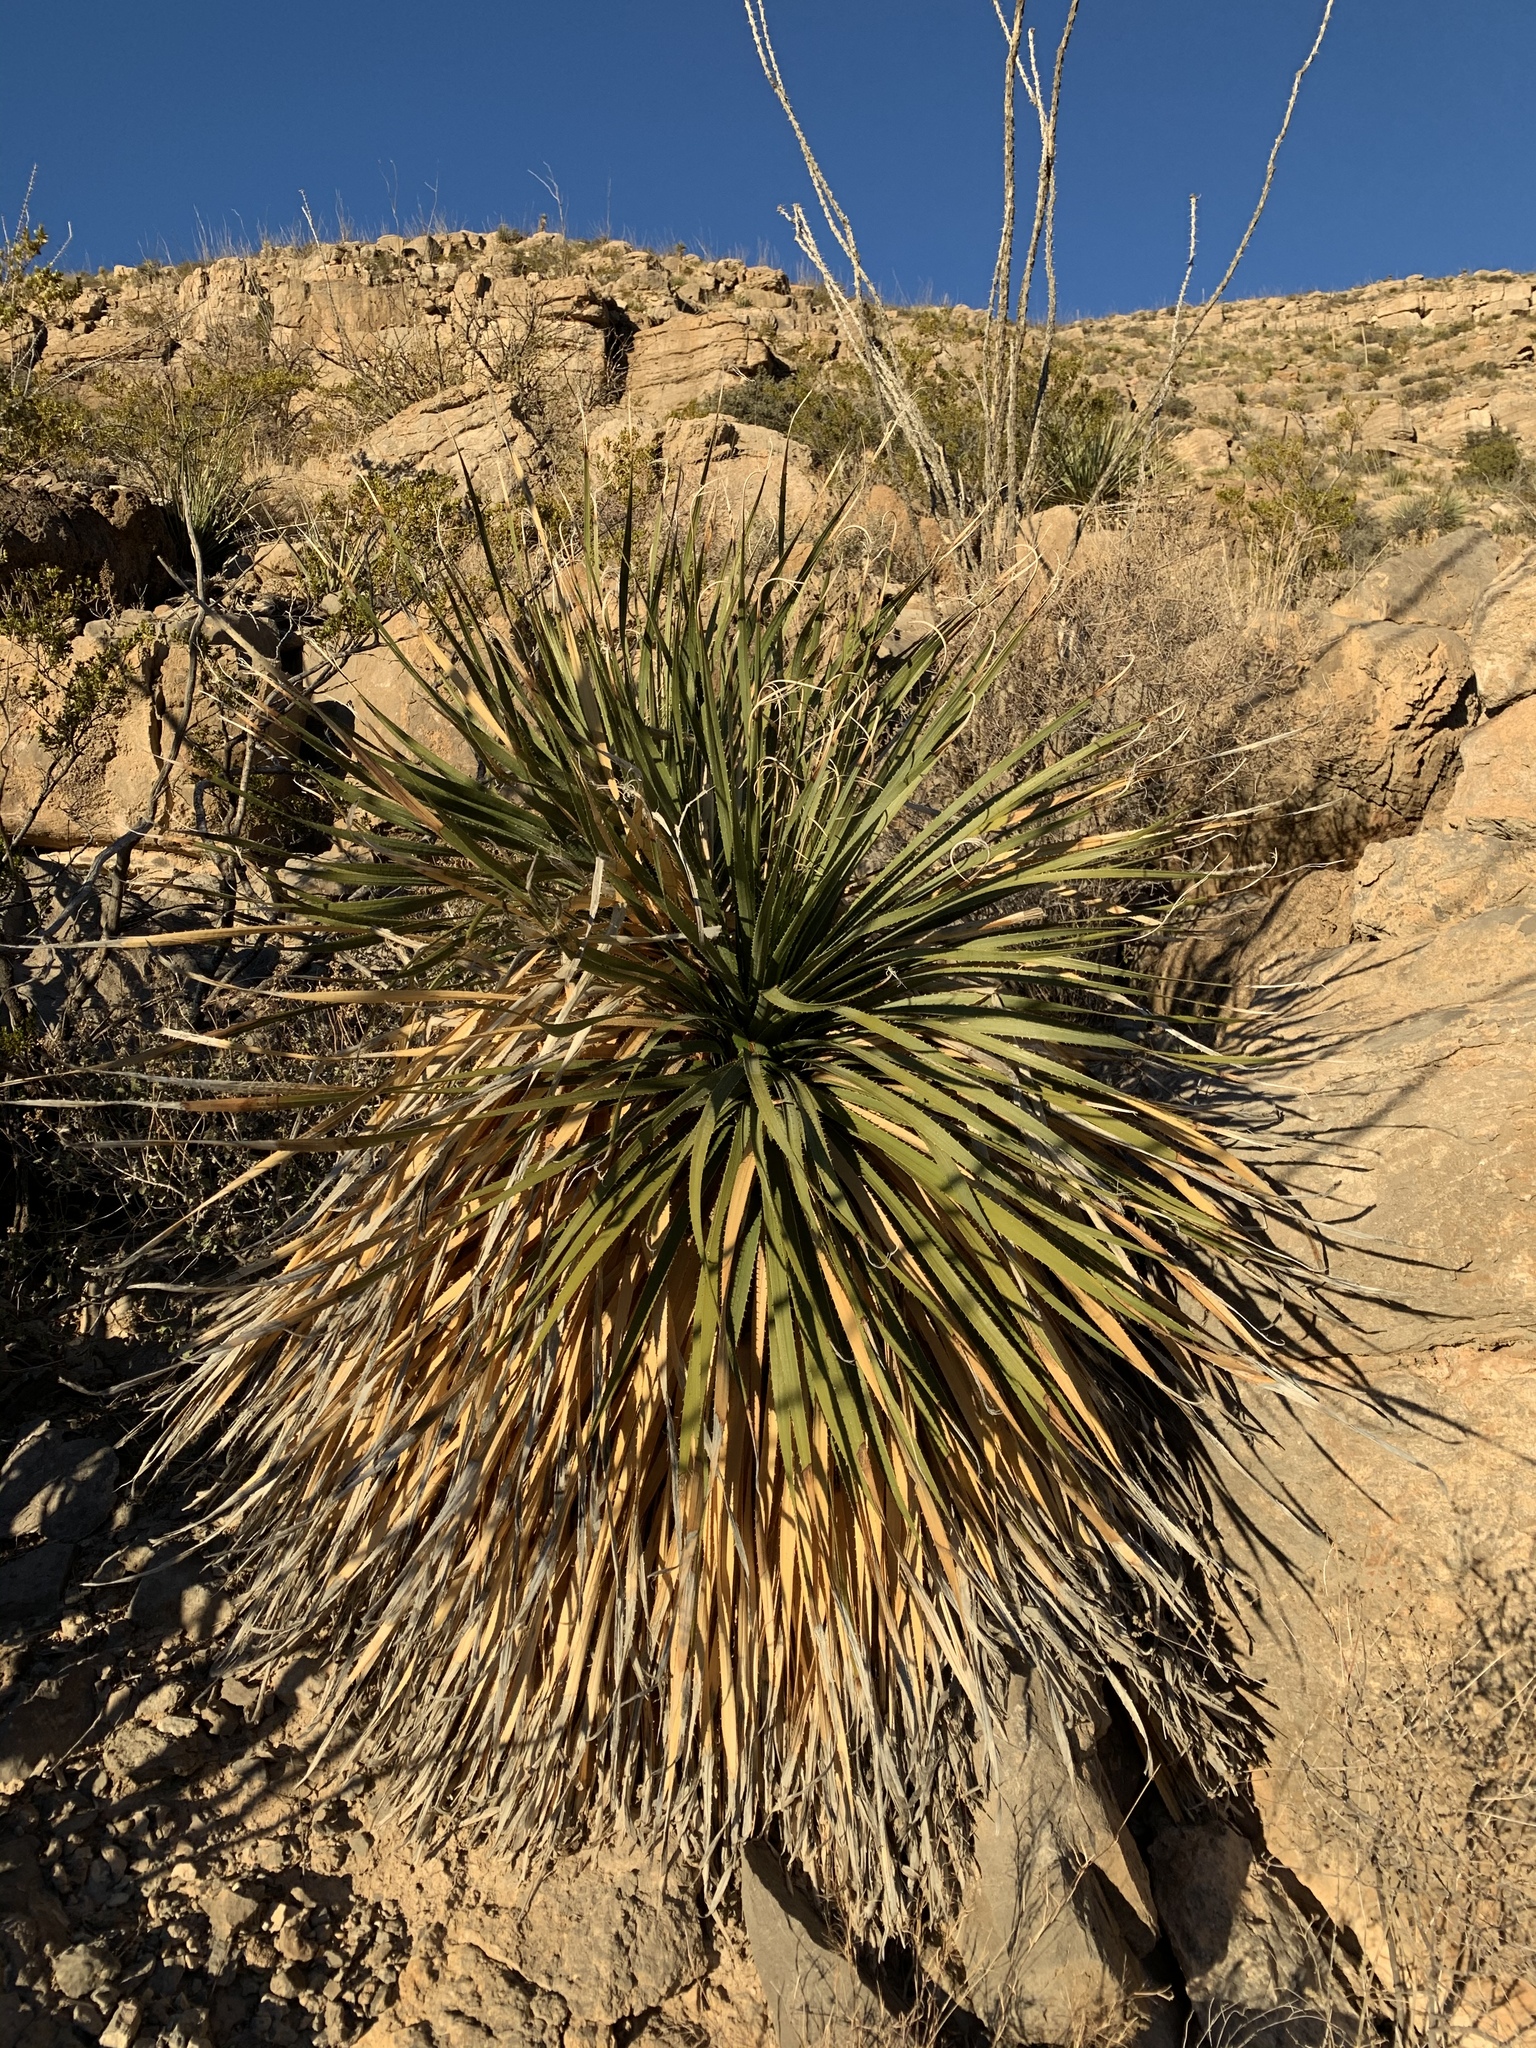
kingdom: Plantae
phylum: Tracheophyta
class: Liliopsida
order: Asparagales
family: Asparagaceae
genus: Dasylirion
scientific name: Dasylirion wheeleri
